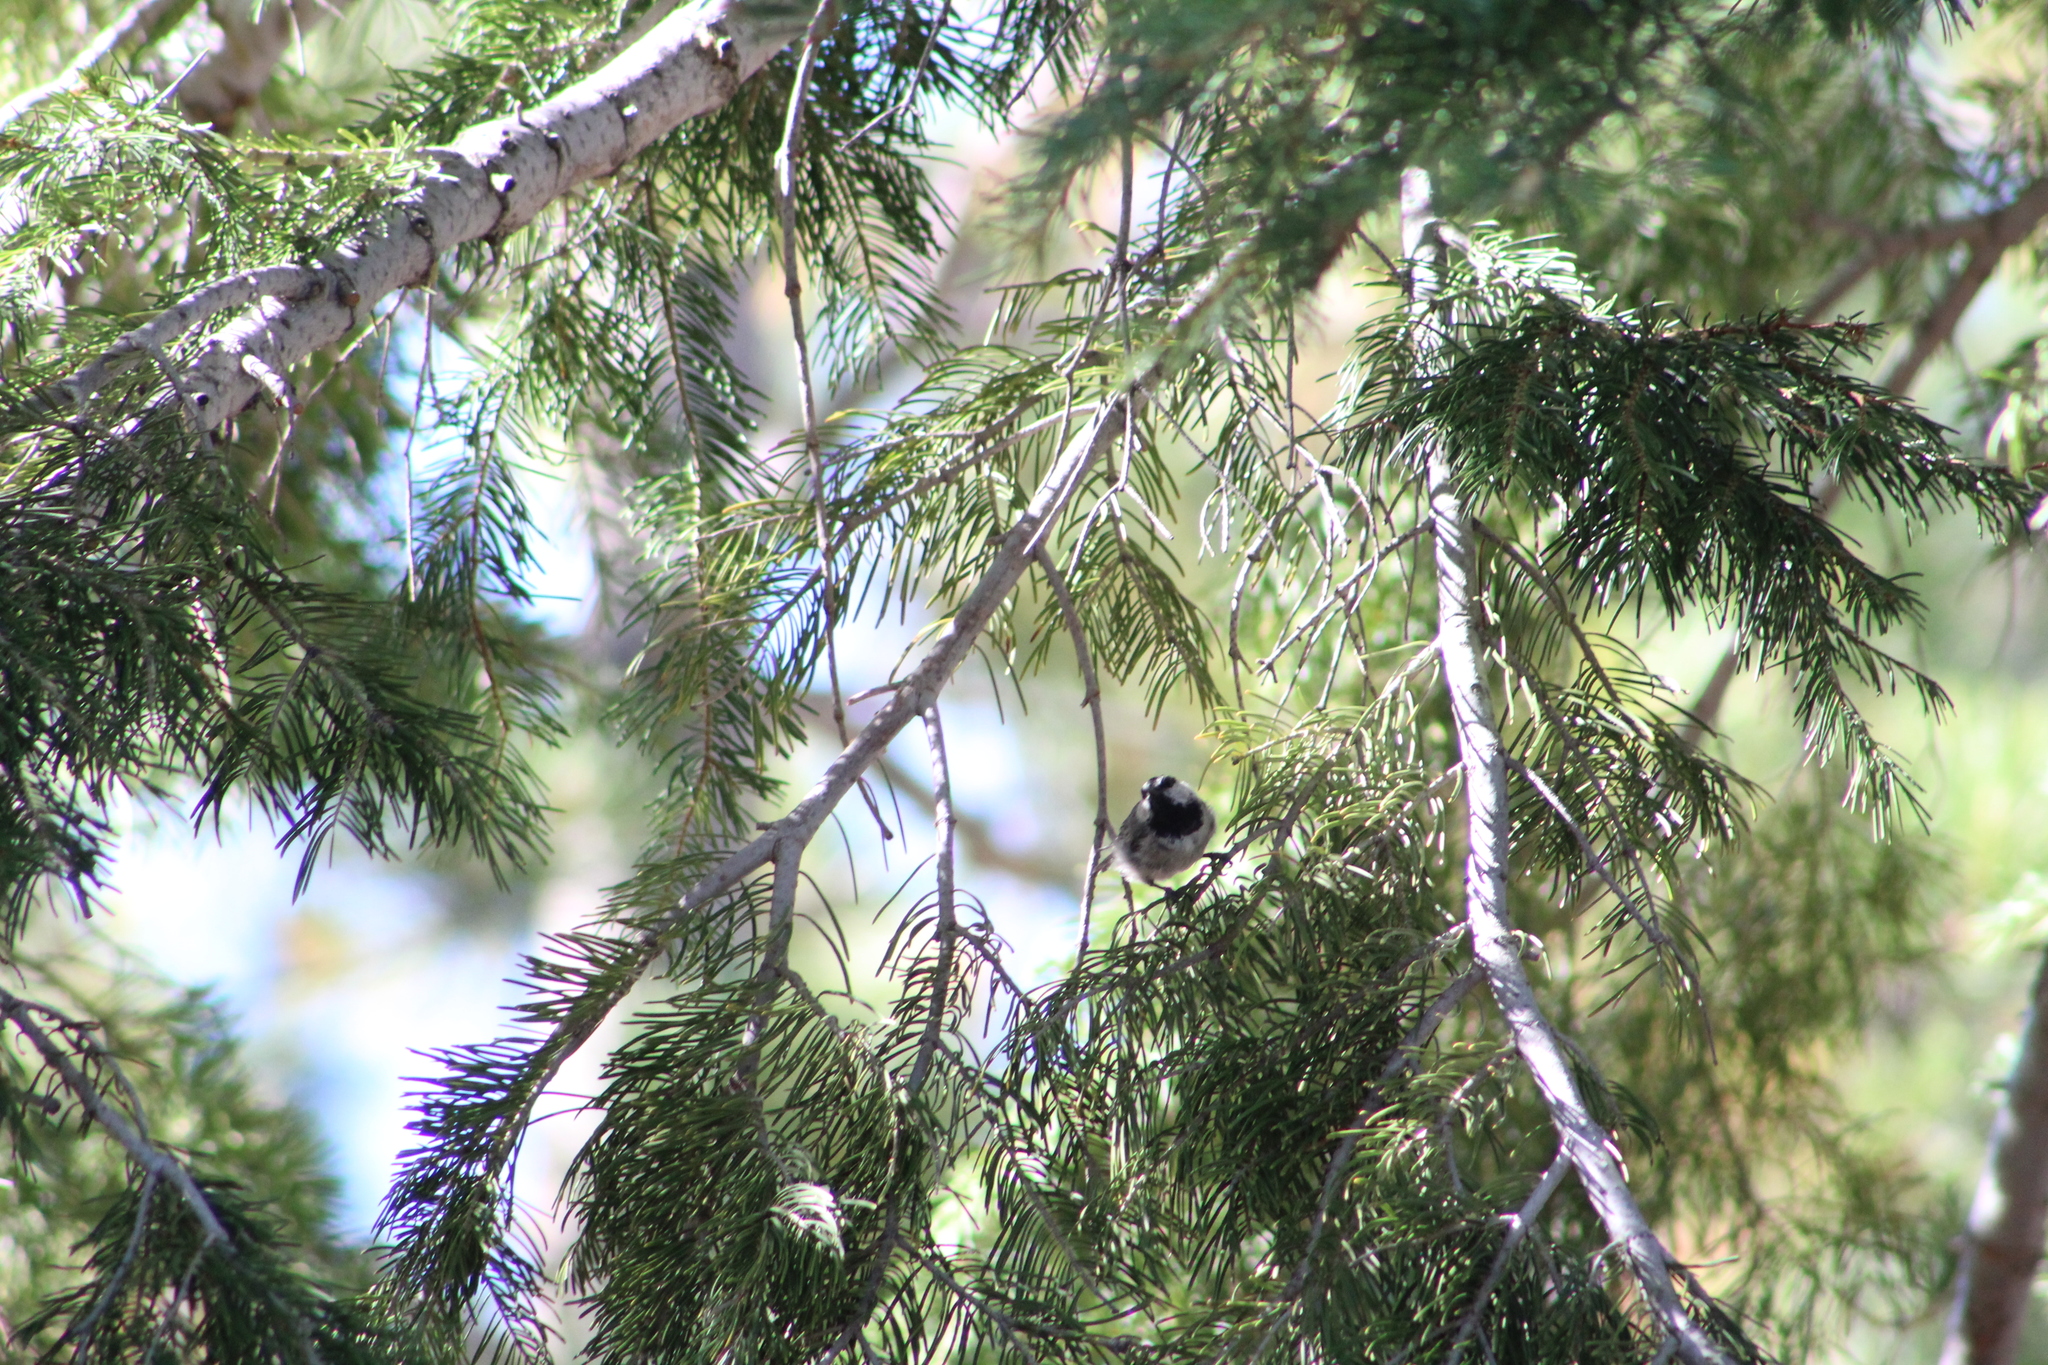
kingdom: Animalia
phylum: Chordata
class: Aves
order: Passeriformes
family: Paridae
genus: Poecile
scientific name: Poecile gambeli
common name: Mountain chickadee
